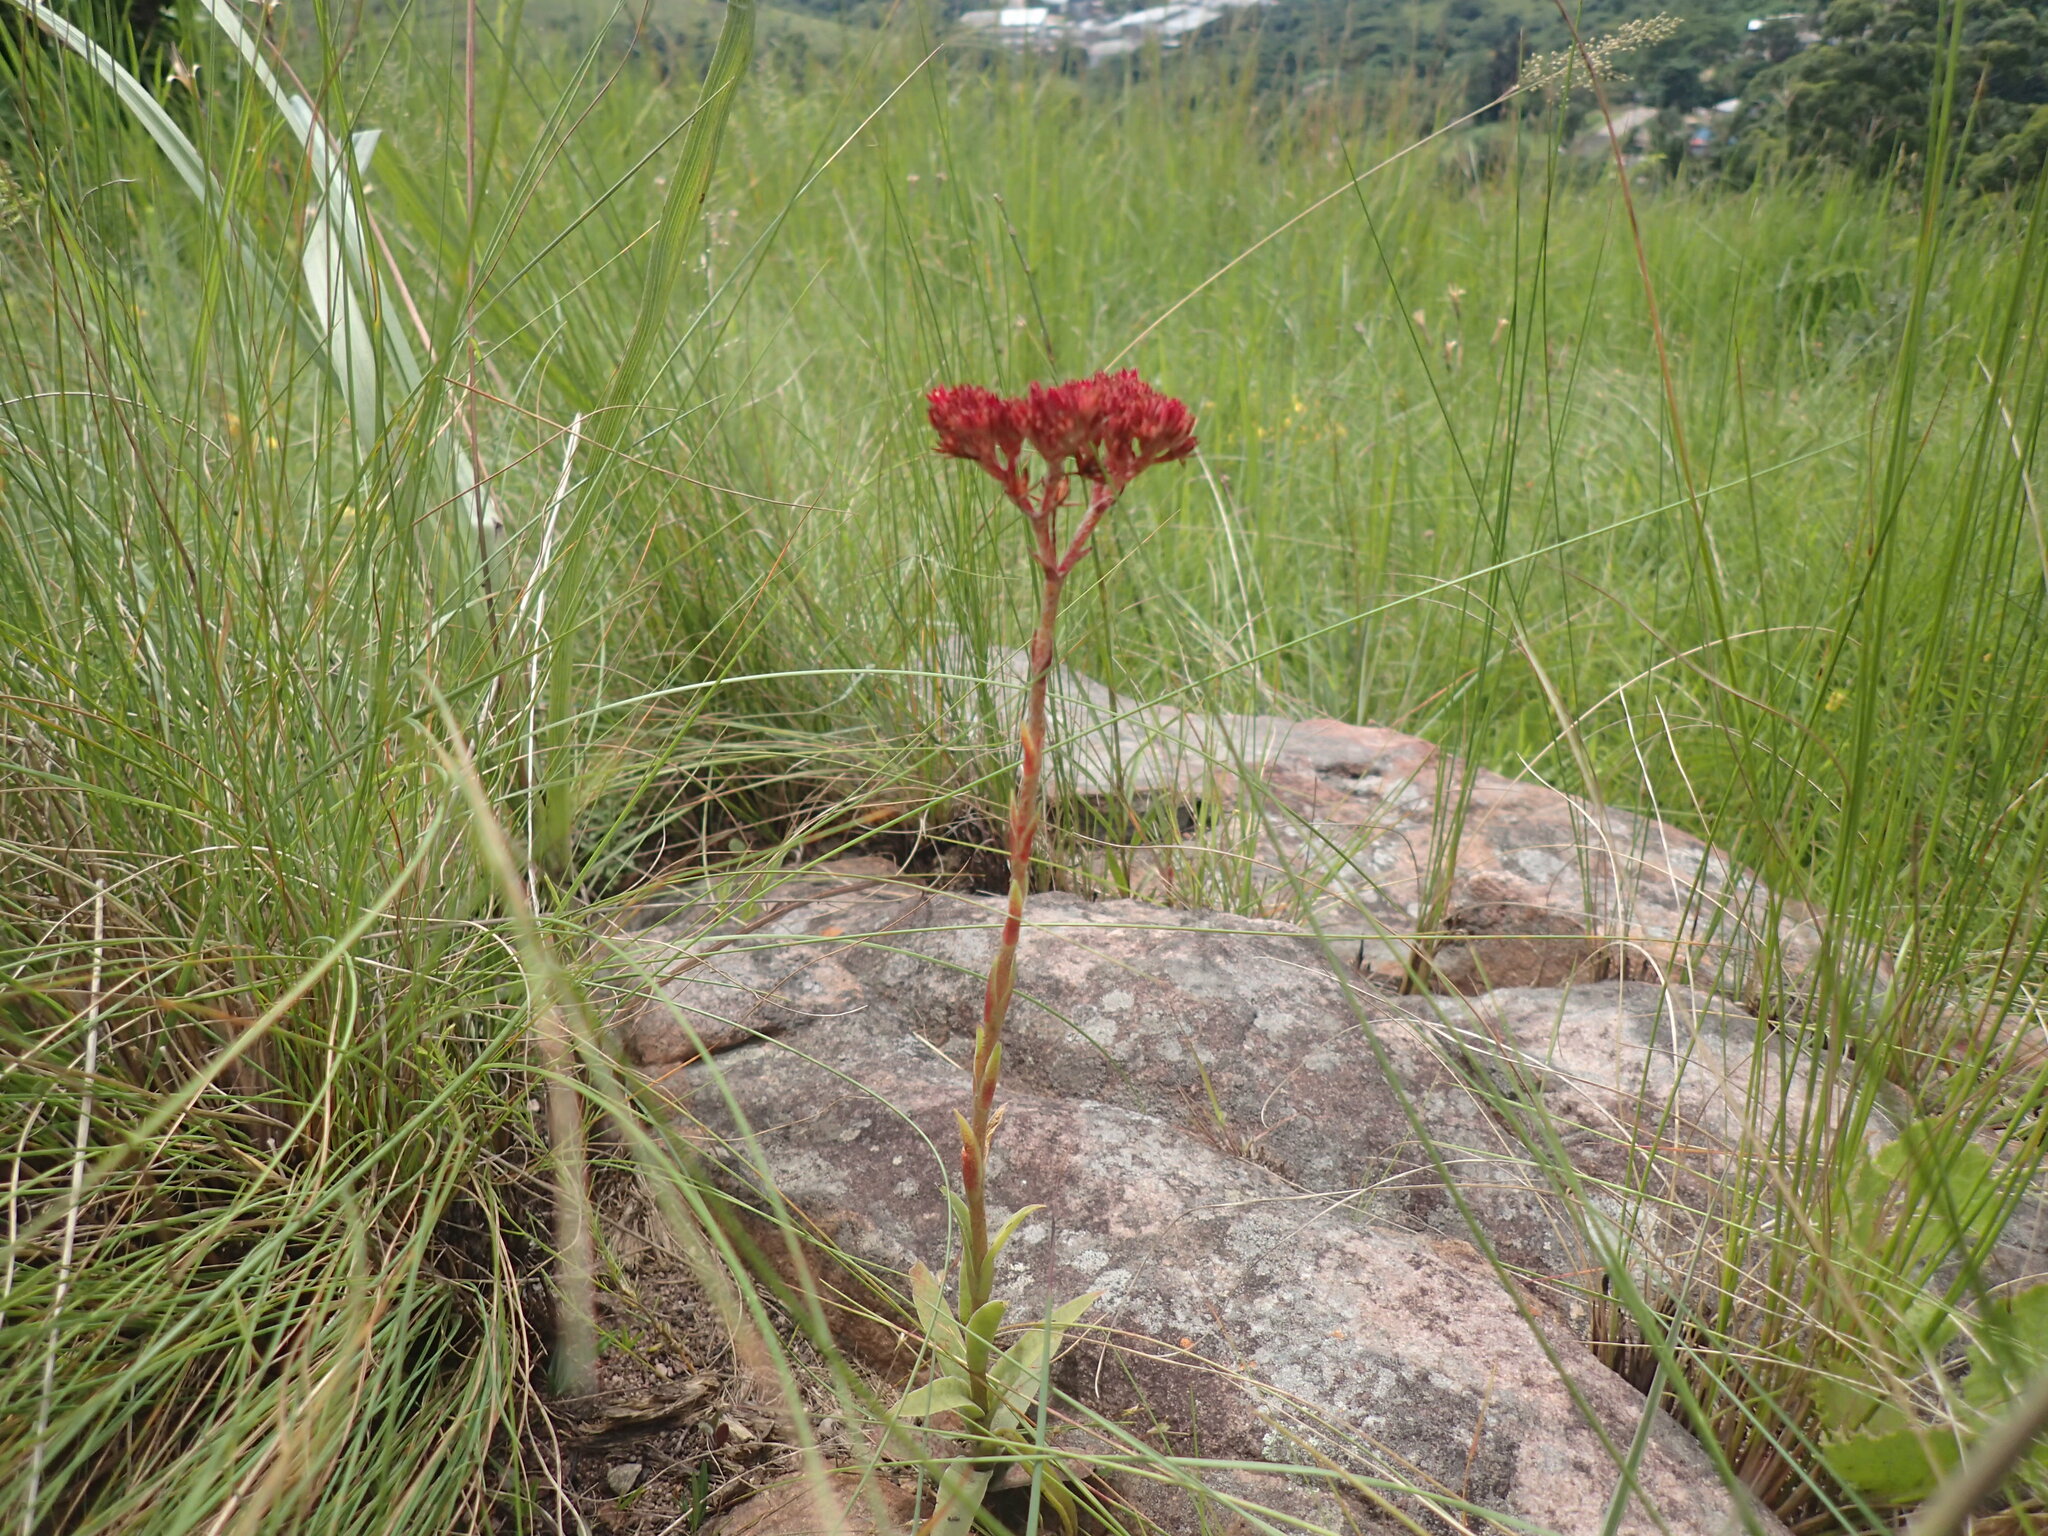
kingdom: Plantae
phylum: Tracheophyta
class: Magnoliopsida
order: Saxifragales
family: Crassulaceae
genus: Crassula
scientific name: Crassula alba
